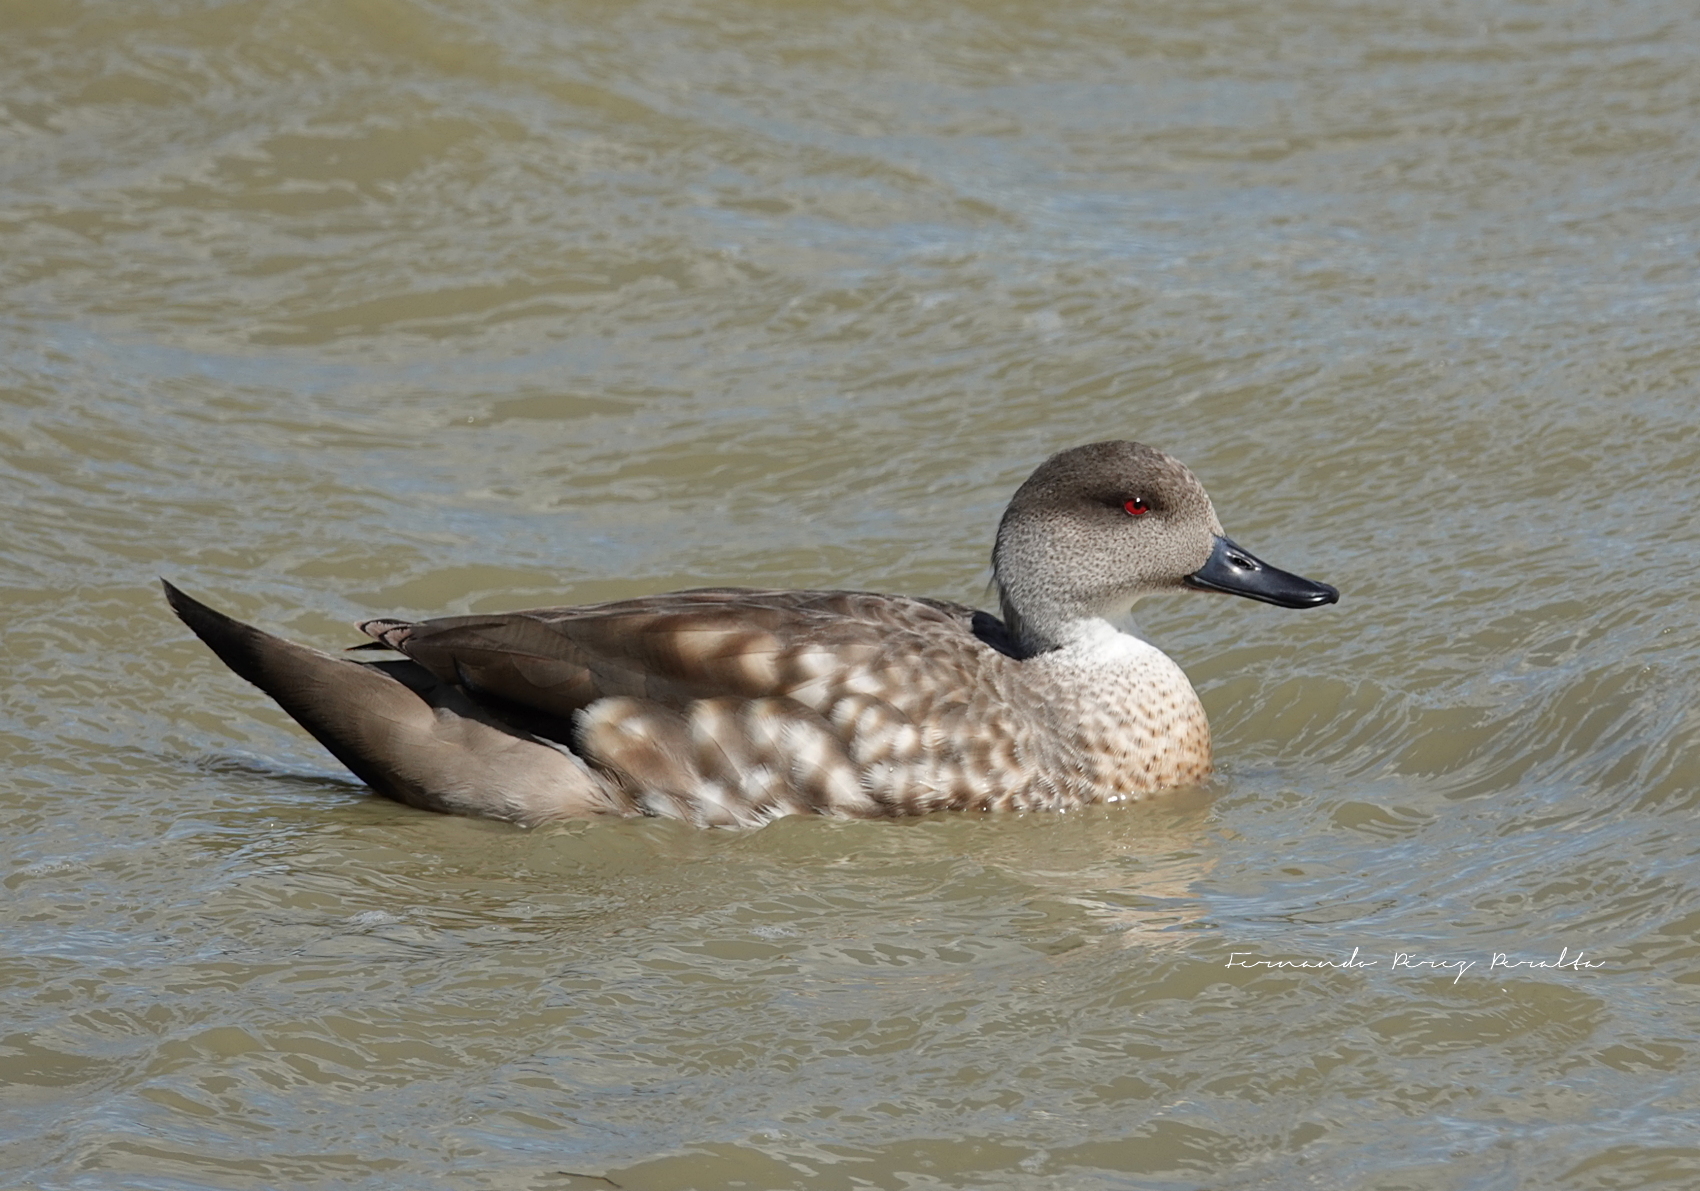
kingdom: Animalia
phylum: Chordata
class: Aves
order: Anseriformes
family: Anatidae
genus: Lophonetta
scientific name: Lophonetta specularioides
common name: Crested duck
